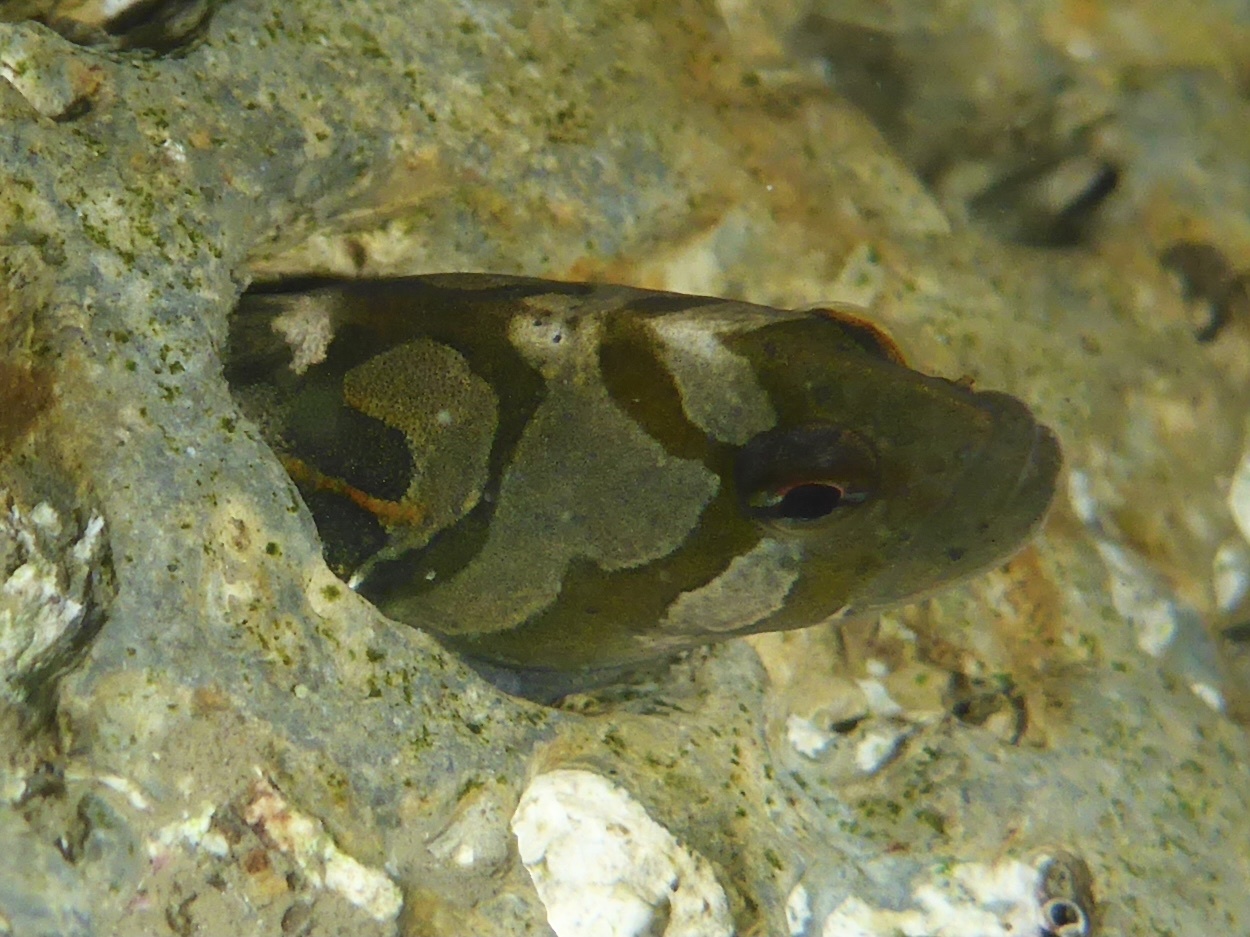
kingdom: Animalia
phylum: Chordata
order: Perciformes
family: Stichaeidae
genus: Cebidichthys
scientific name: Cebidichthys violaceus
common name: Monkeyface prickleback
